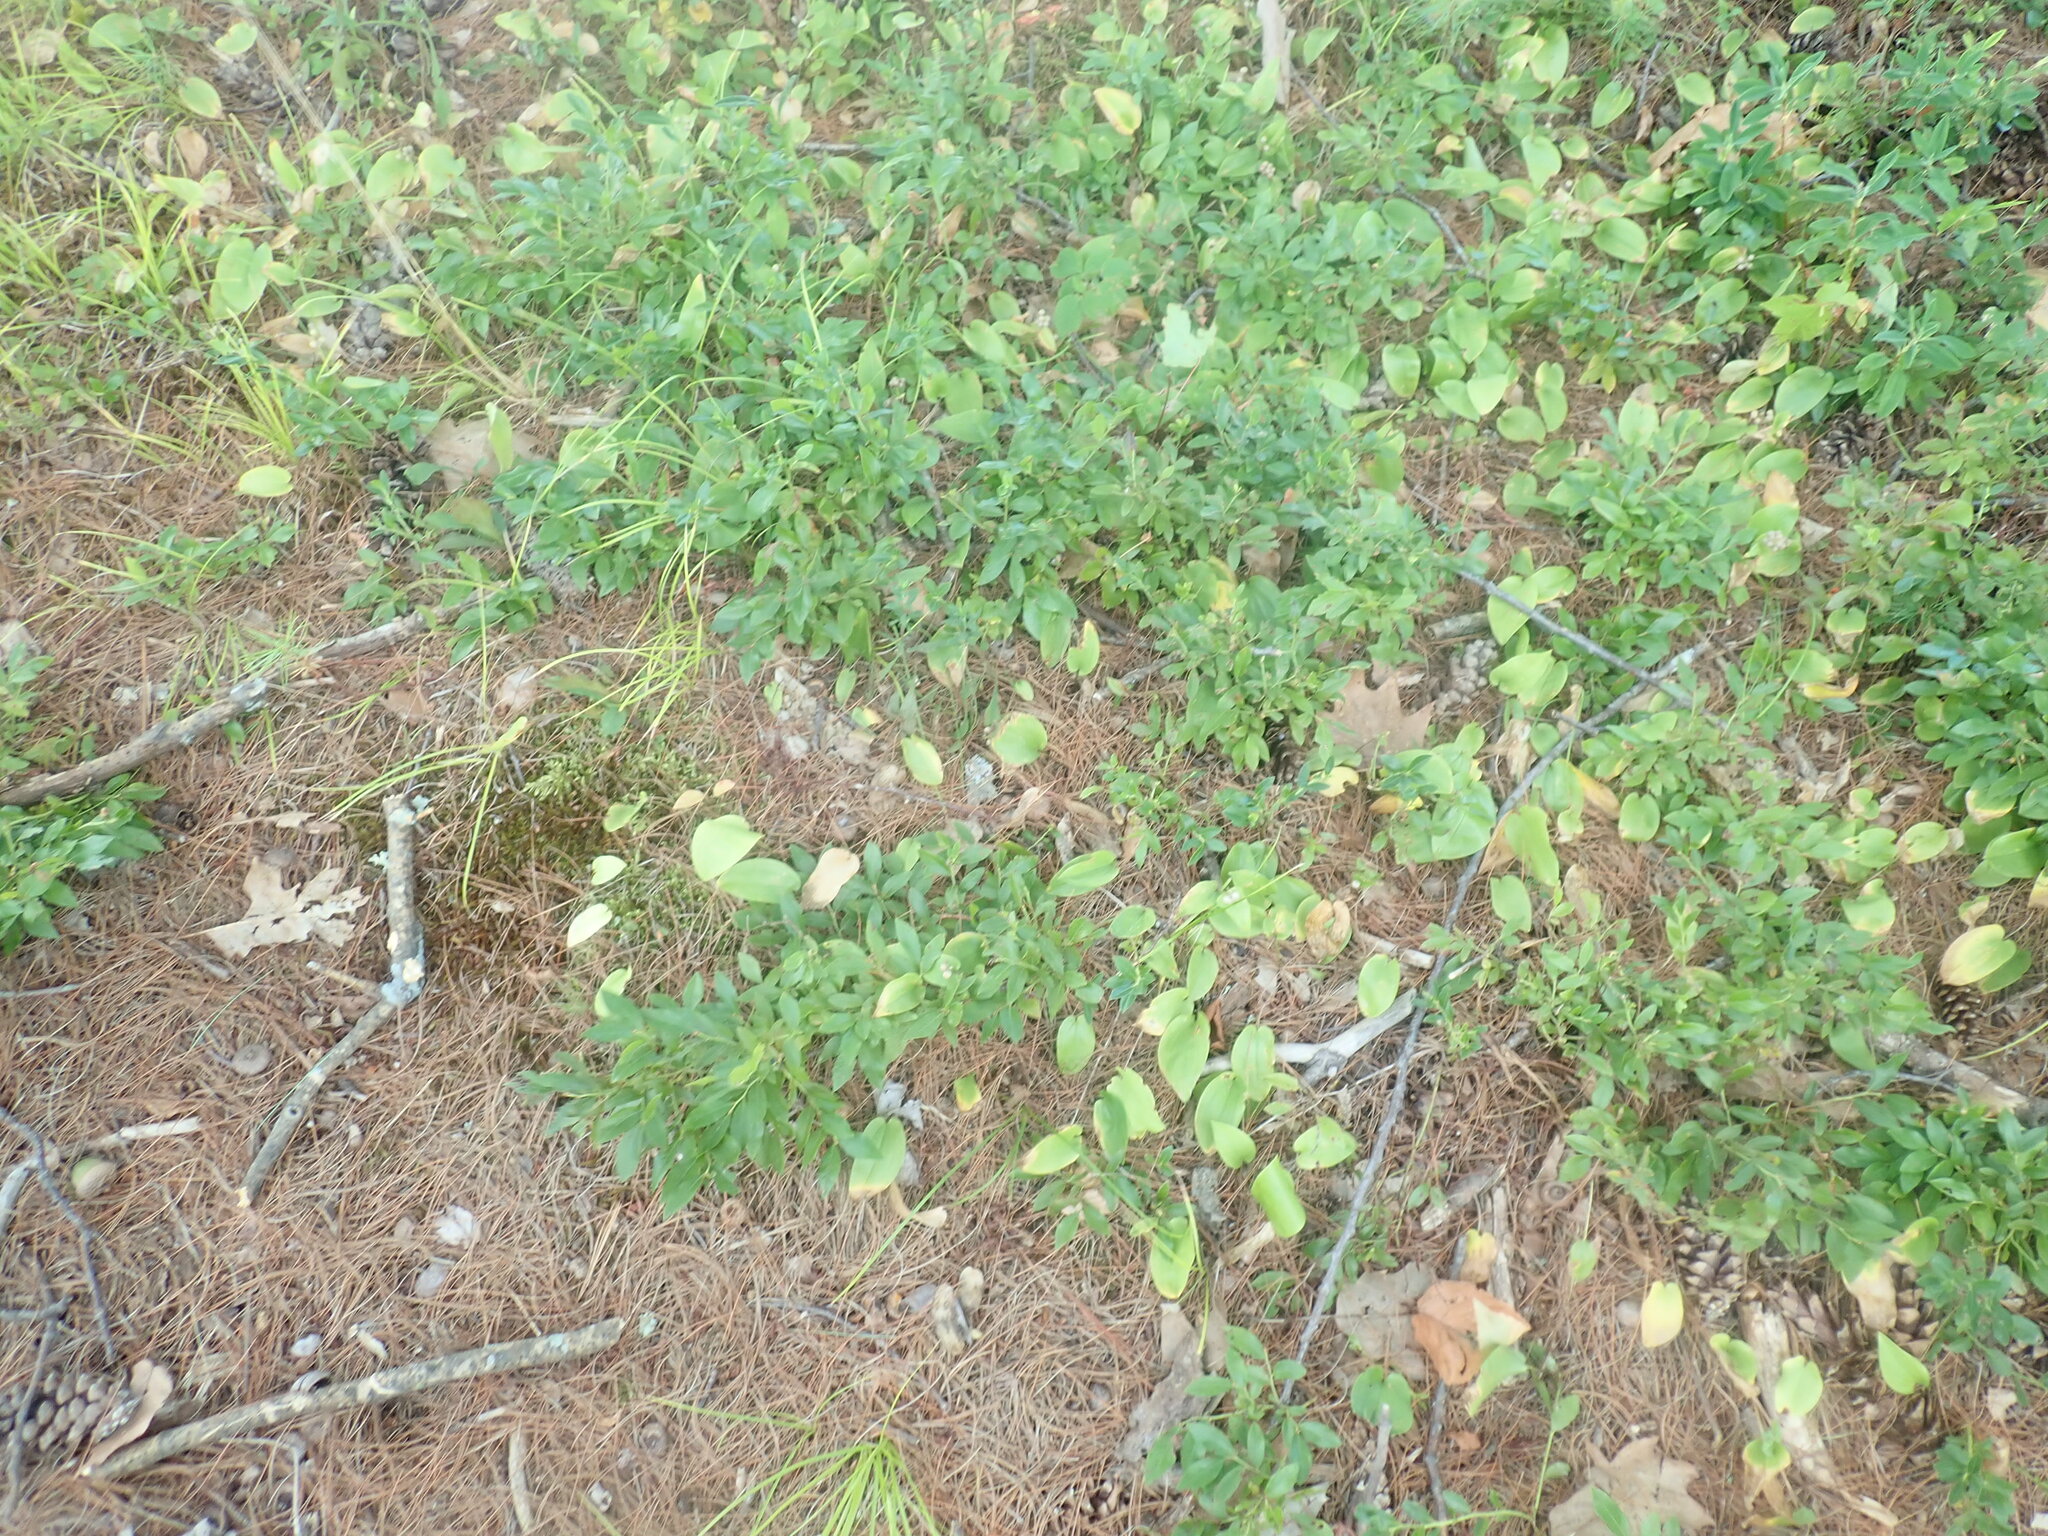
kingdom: Plantae
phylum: Tracheophyta
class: Magnoliopsida
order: Ericales
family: Ericaceae
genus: Vaccinium
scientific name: Vaccinium angustifolium
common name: Early lowbush blueberry
